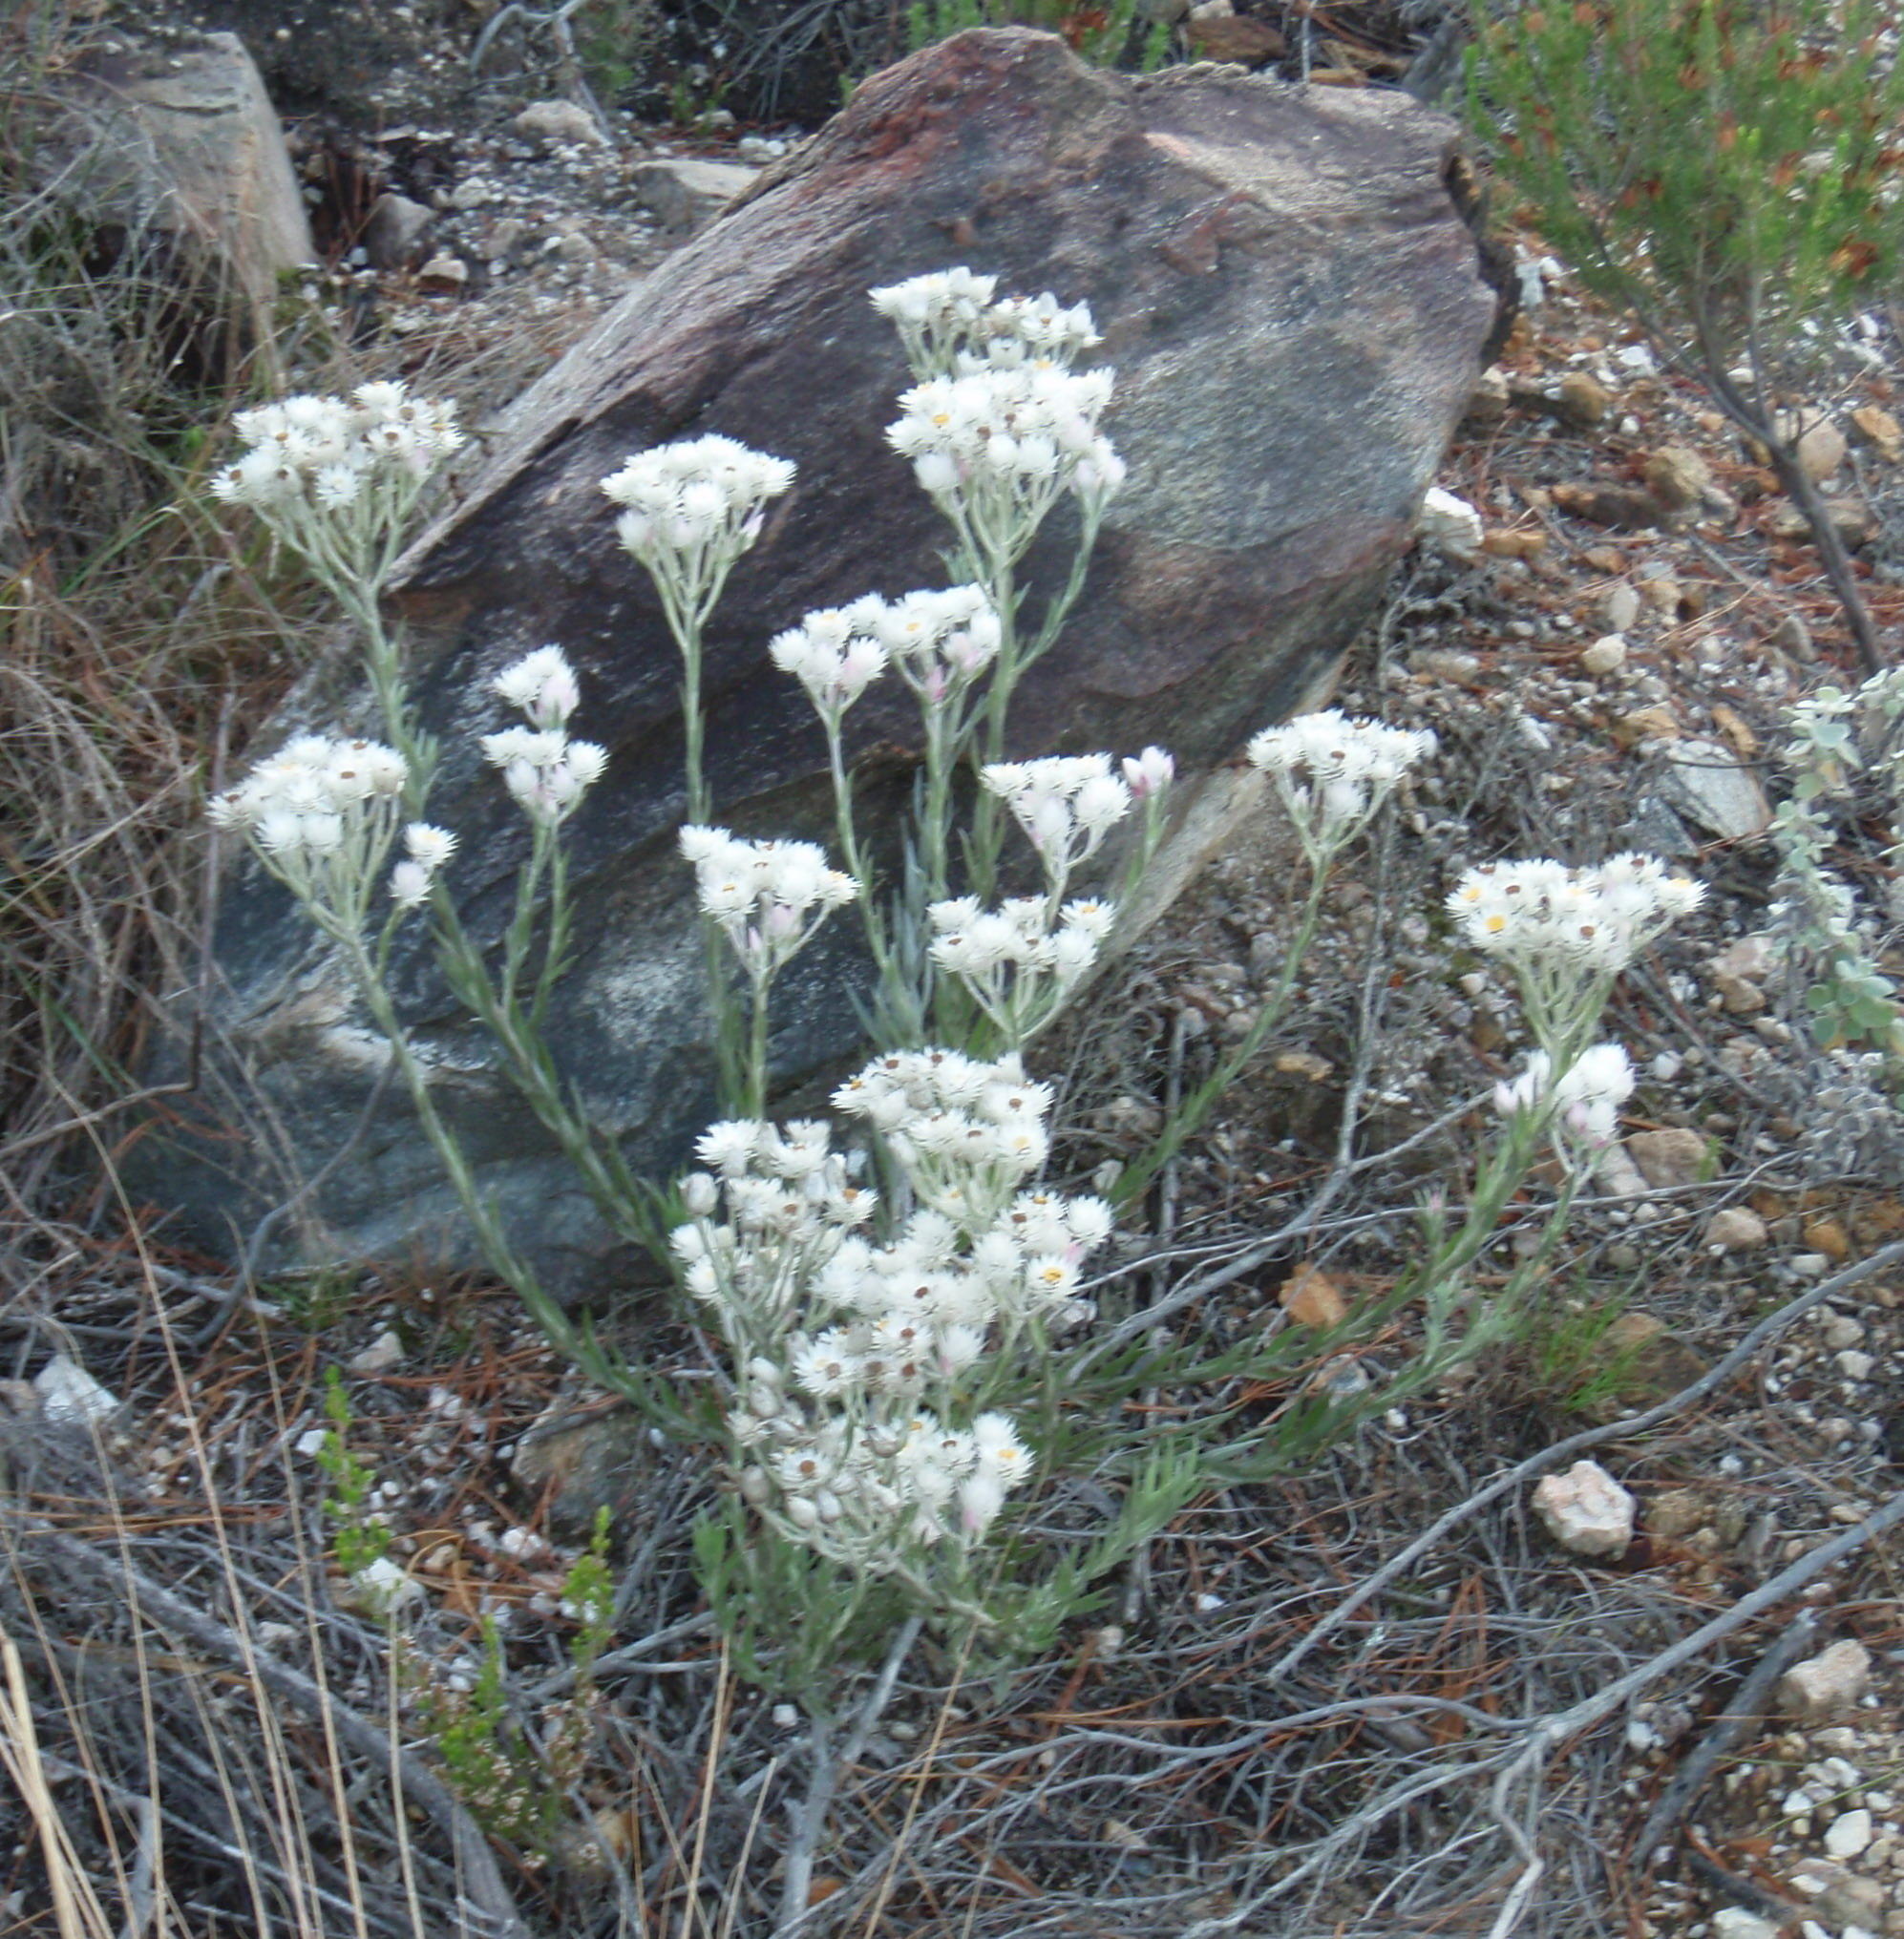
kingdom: Plantae
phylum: Tracheophyta
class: Magnoliopsida
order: Asterales
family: Asteraceae
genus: Achyranthemum
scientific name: Achyranthemum paniculatum
